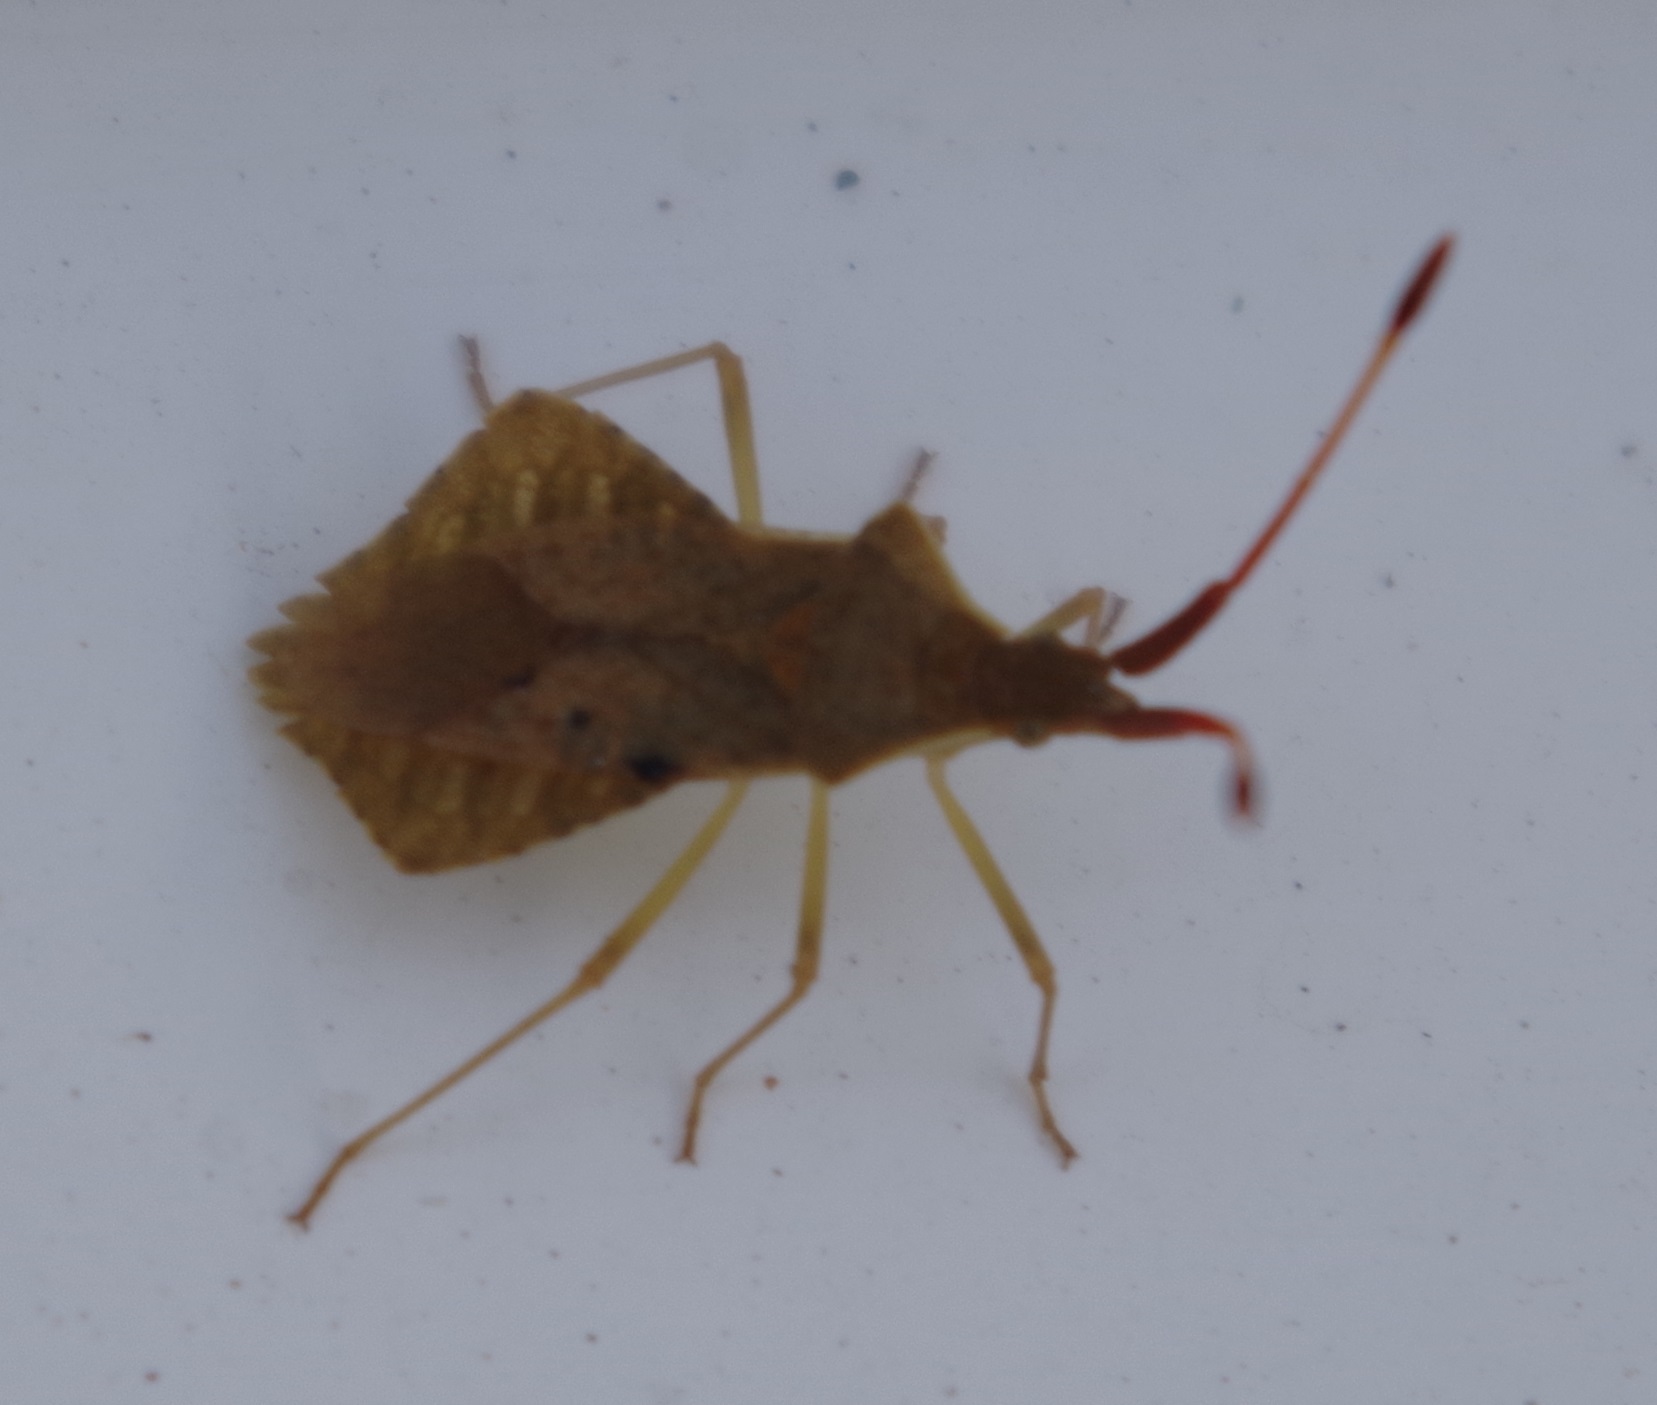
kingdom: Animalia
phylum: Arthropoda
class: Insecta
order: Hemiptera
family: Coreidae
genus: Syromastus
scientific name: Syromastus rhombeus
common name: Rhombic leatherbug
